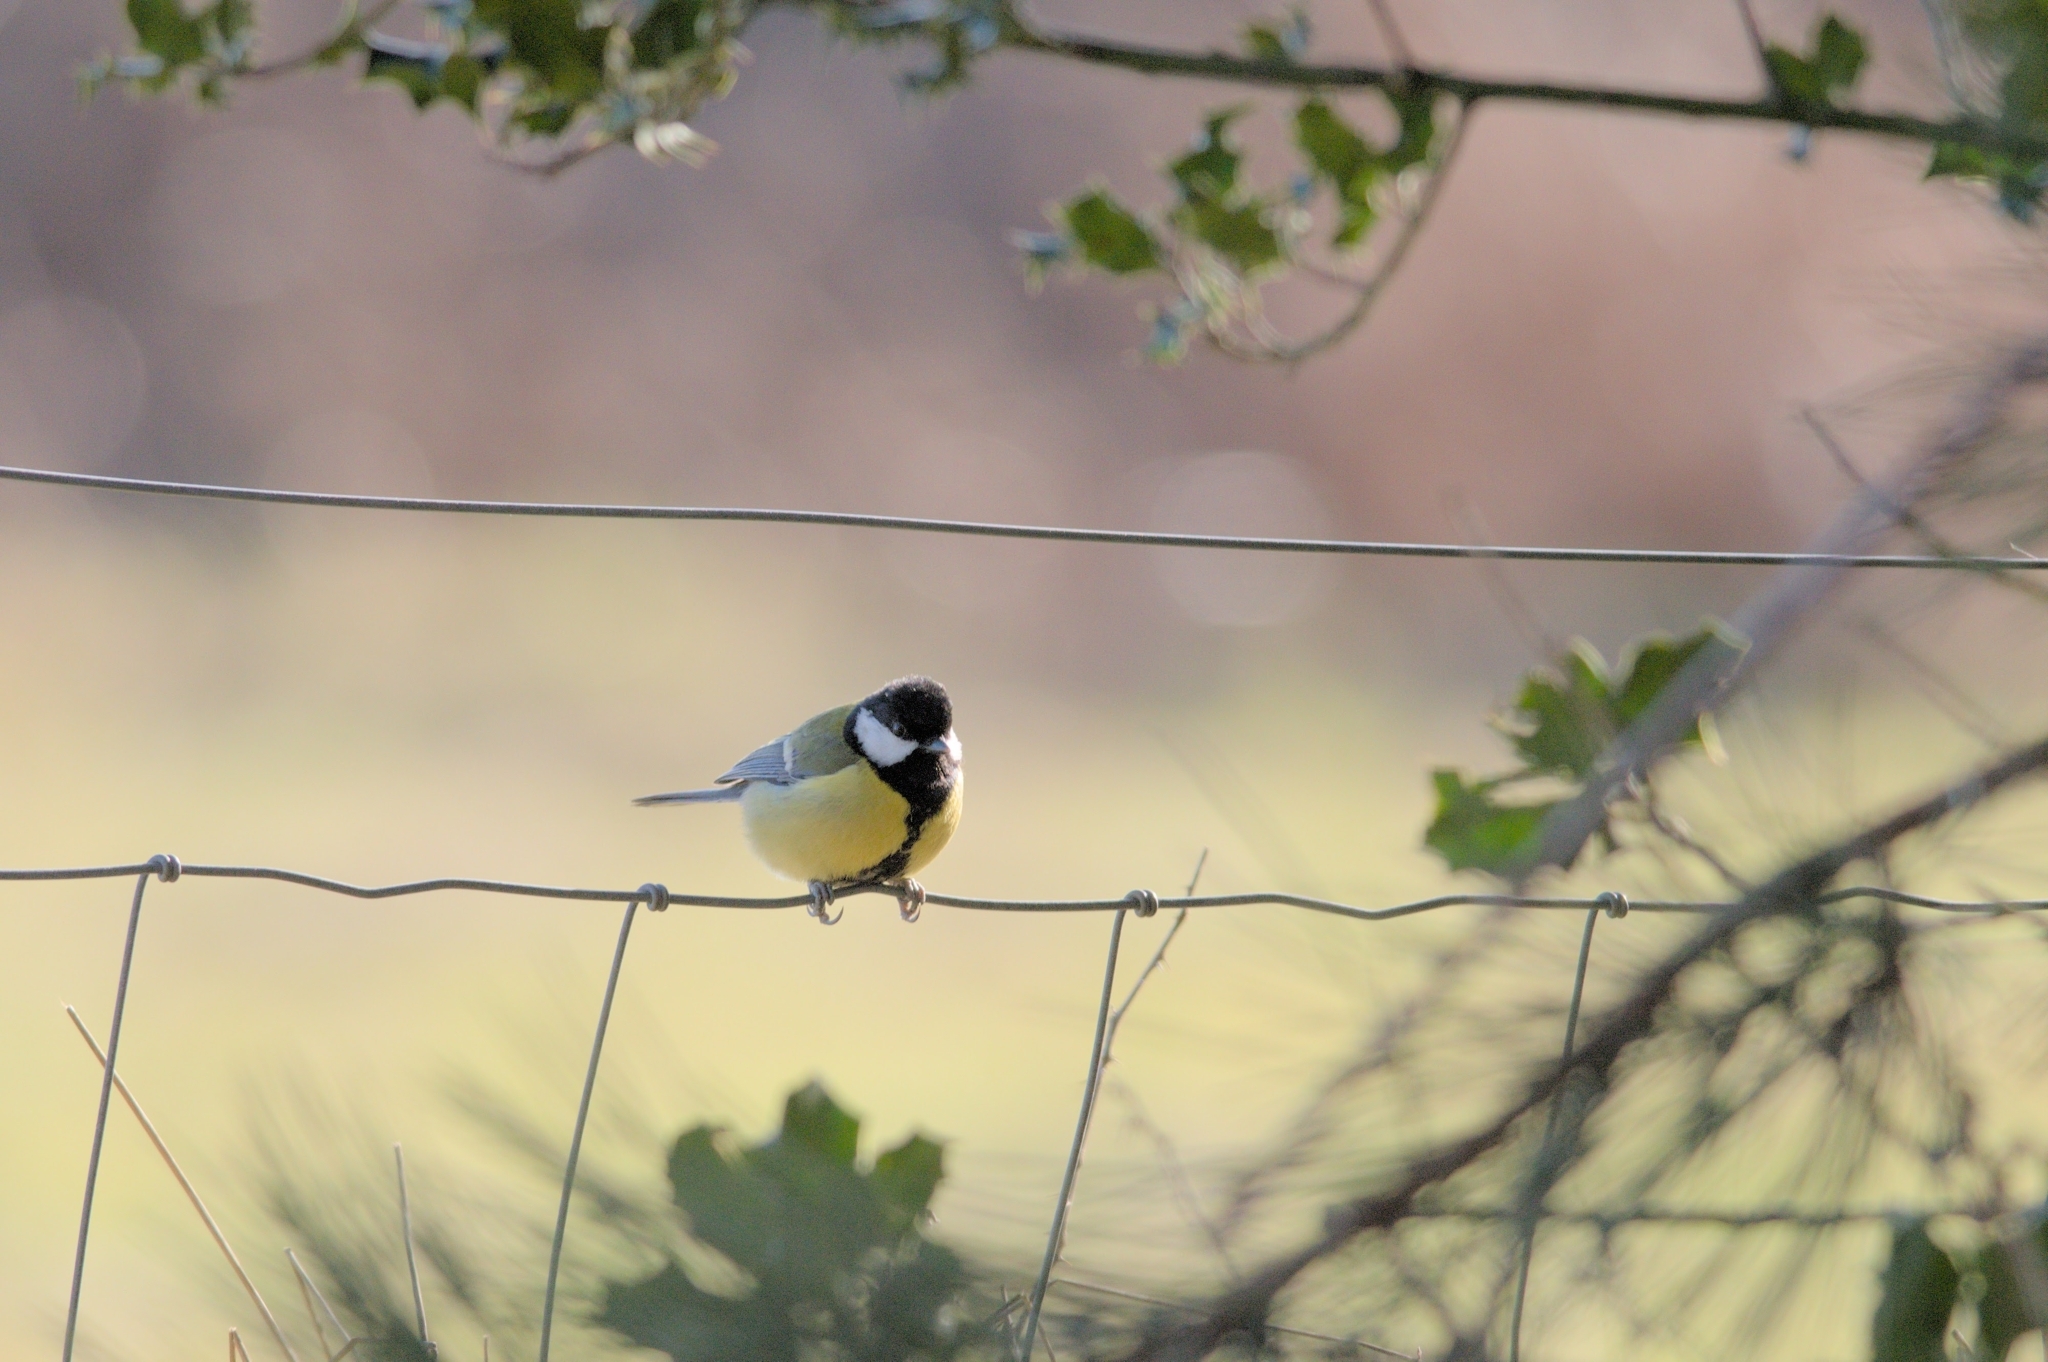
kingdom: Animalia
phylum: Chordata
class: Aves
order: Passeriformes
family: Paridae
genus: Parus
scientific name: Parus major
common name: Great tit
